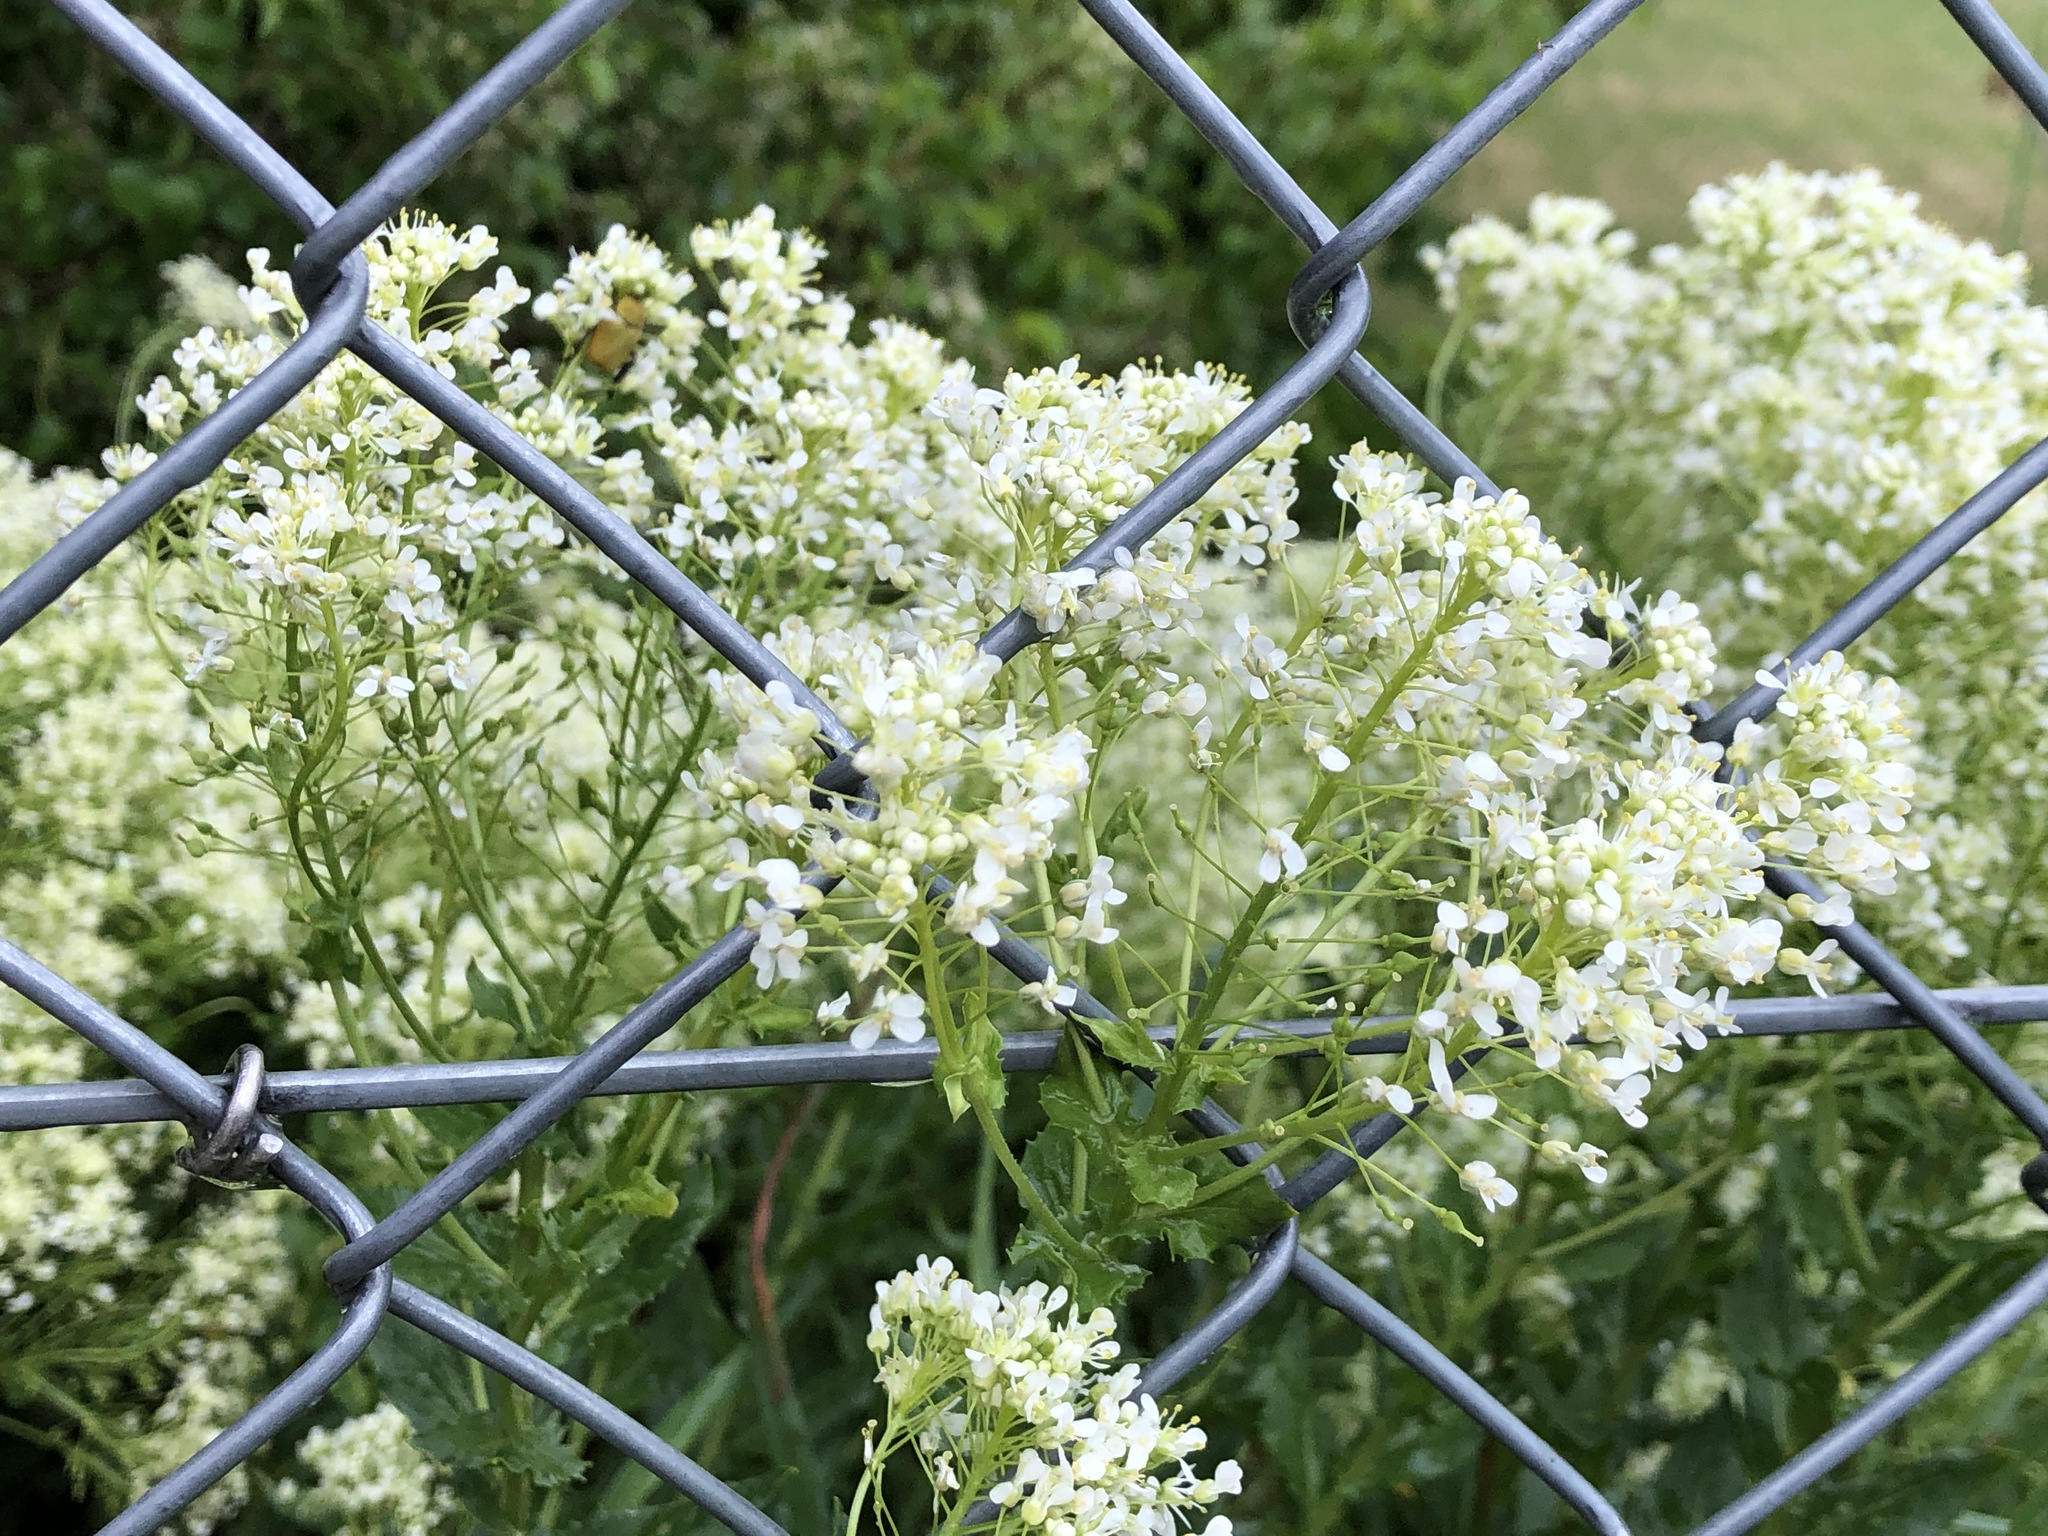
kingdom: Plantae
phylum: Tracheophyta
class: Magnoliopsida
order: Brassicales
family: Brassicaceae
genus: Lepidium
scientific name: Lepidium draba
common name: Hoary cress
